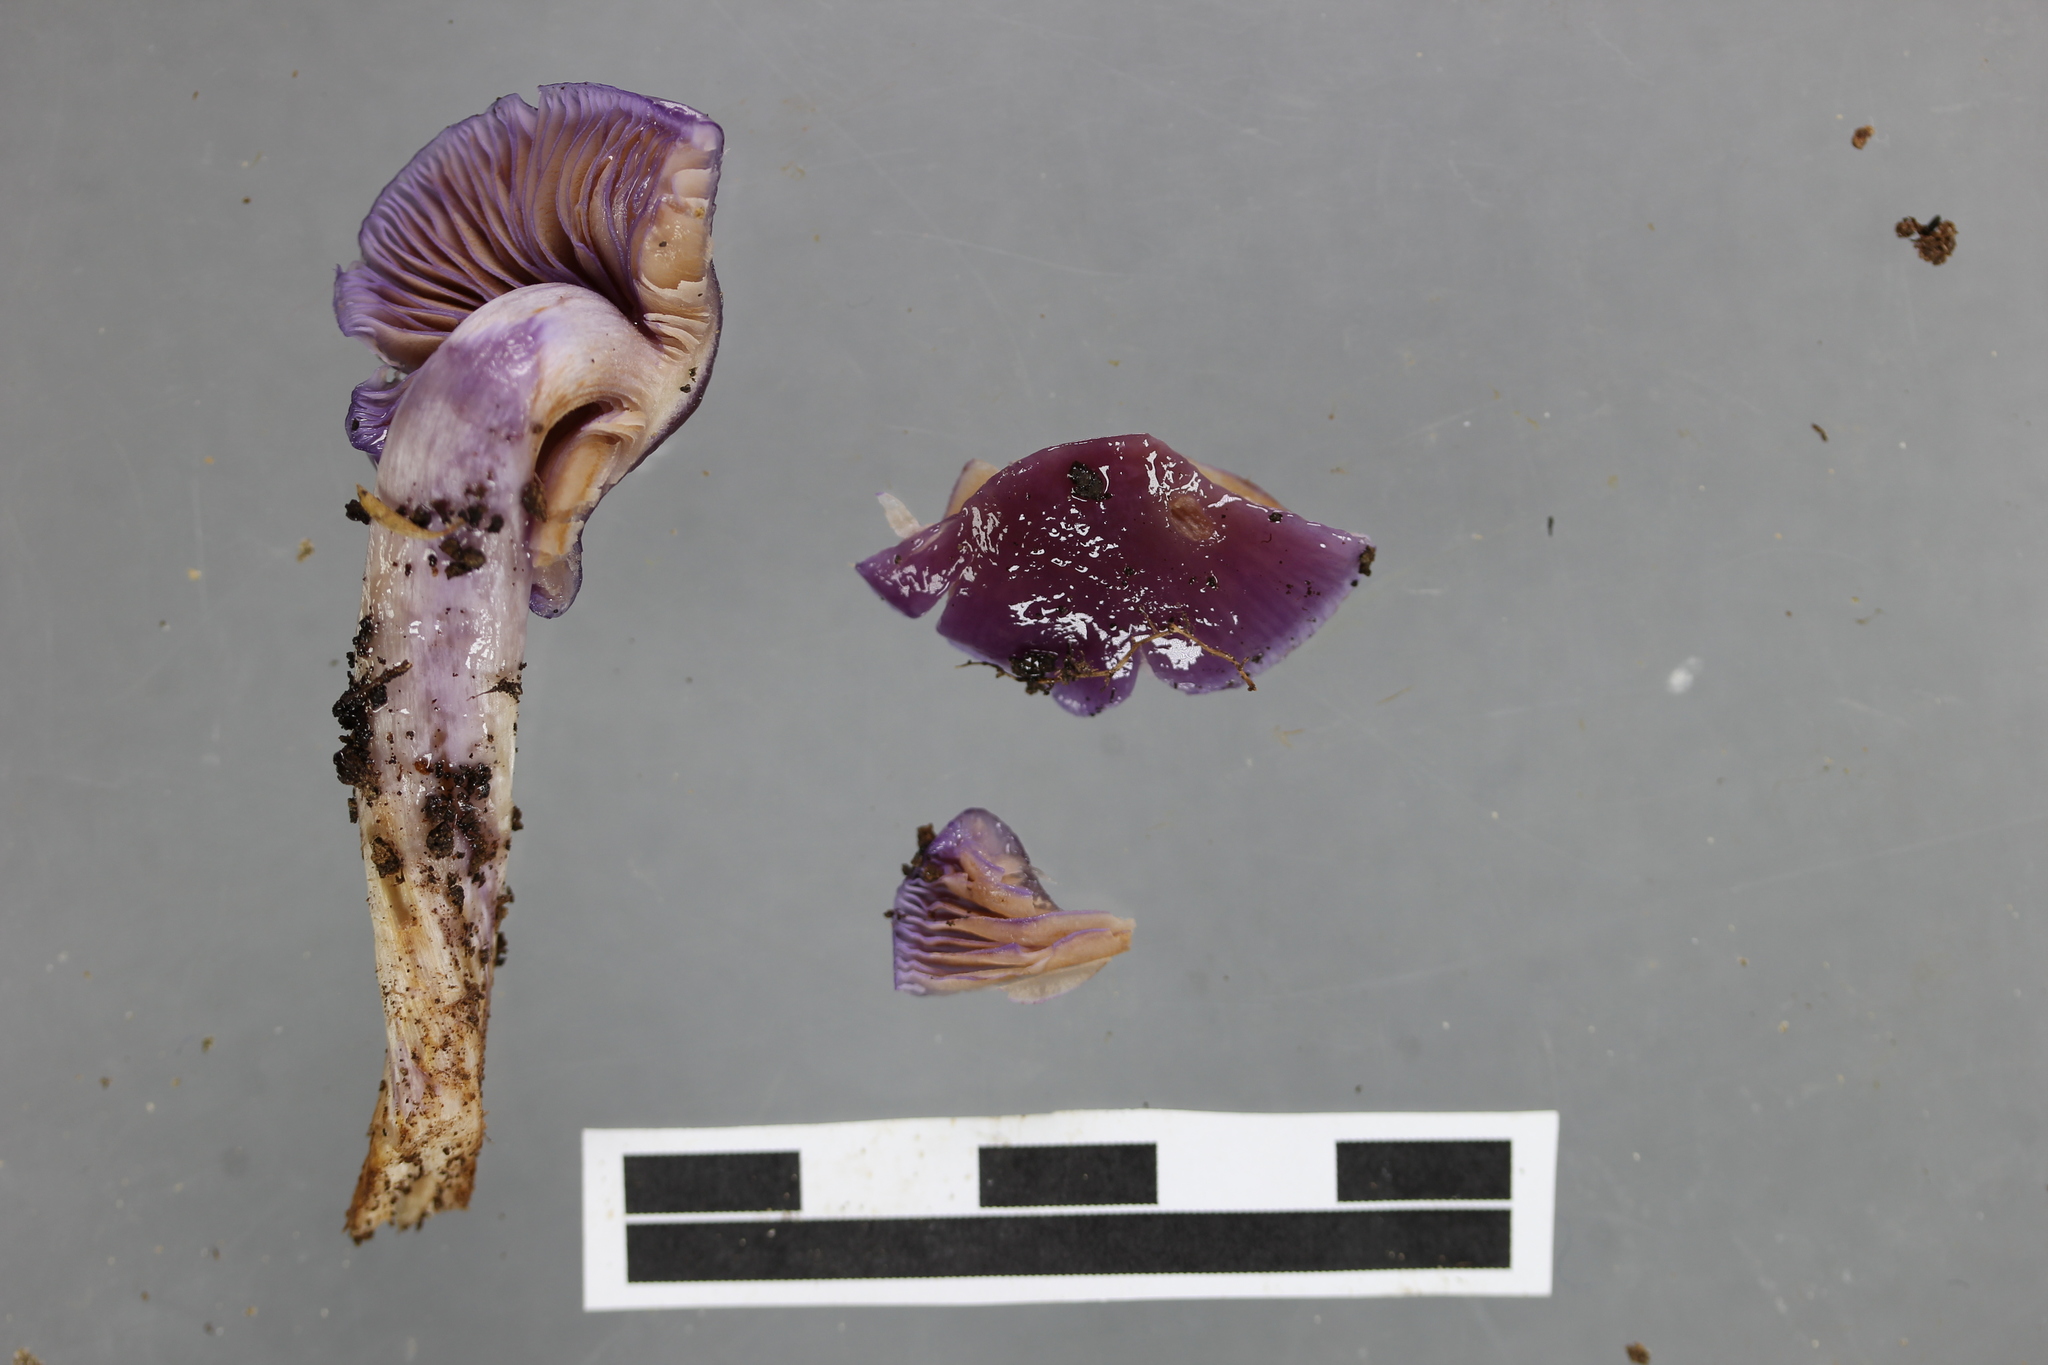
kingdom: Fungi
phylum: Basidiomycota
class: Agaricomycetes
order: Agaricales
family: Cortinariaceae
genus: Cortinarius
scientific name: Cortinarius lubricanescens
